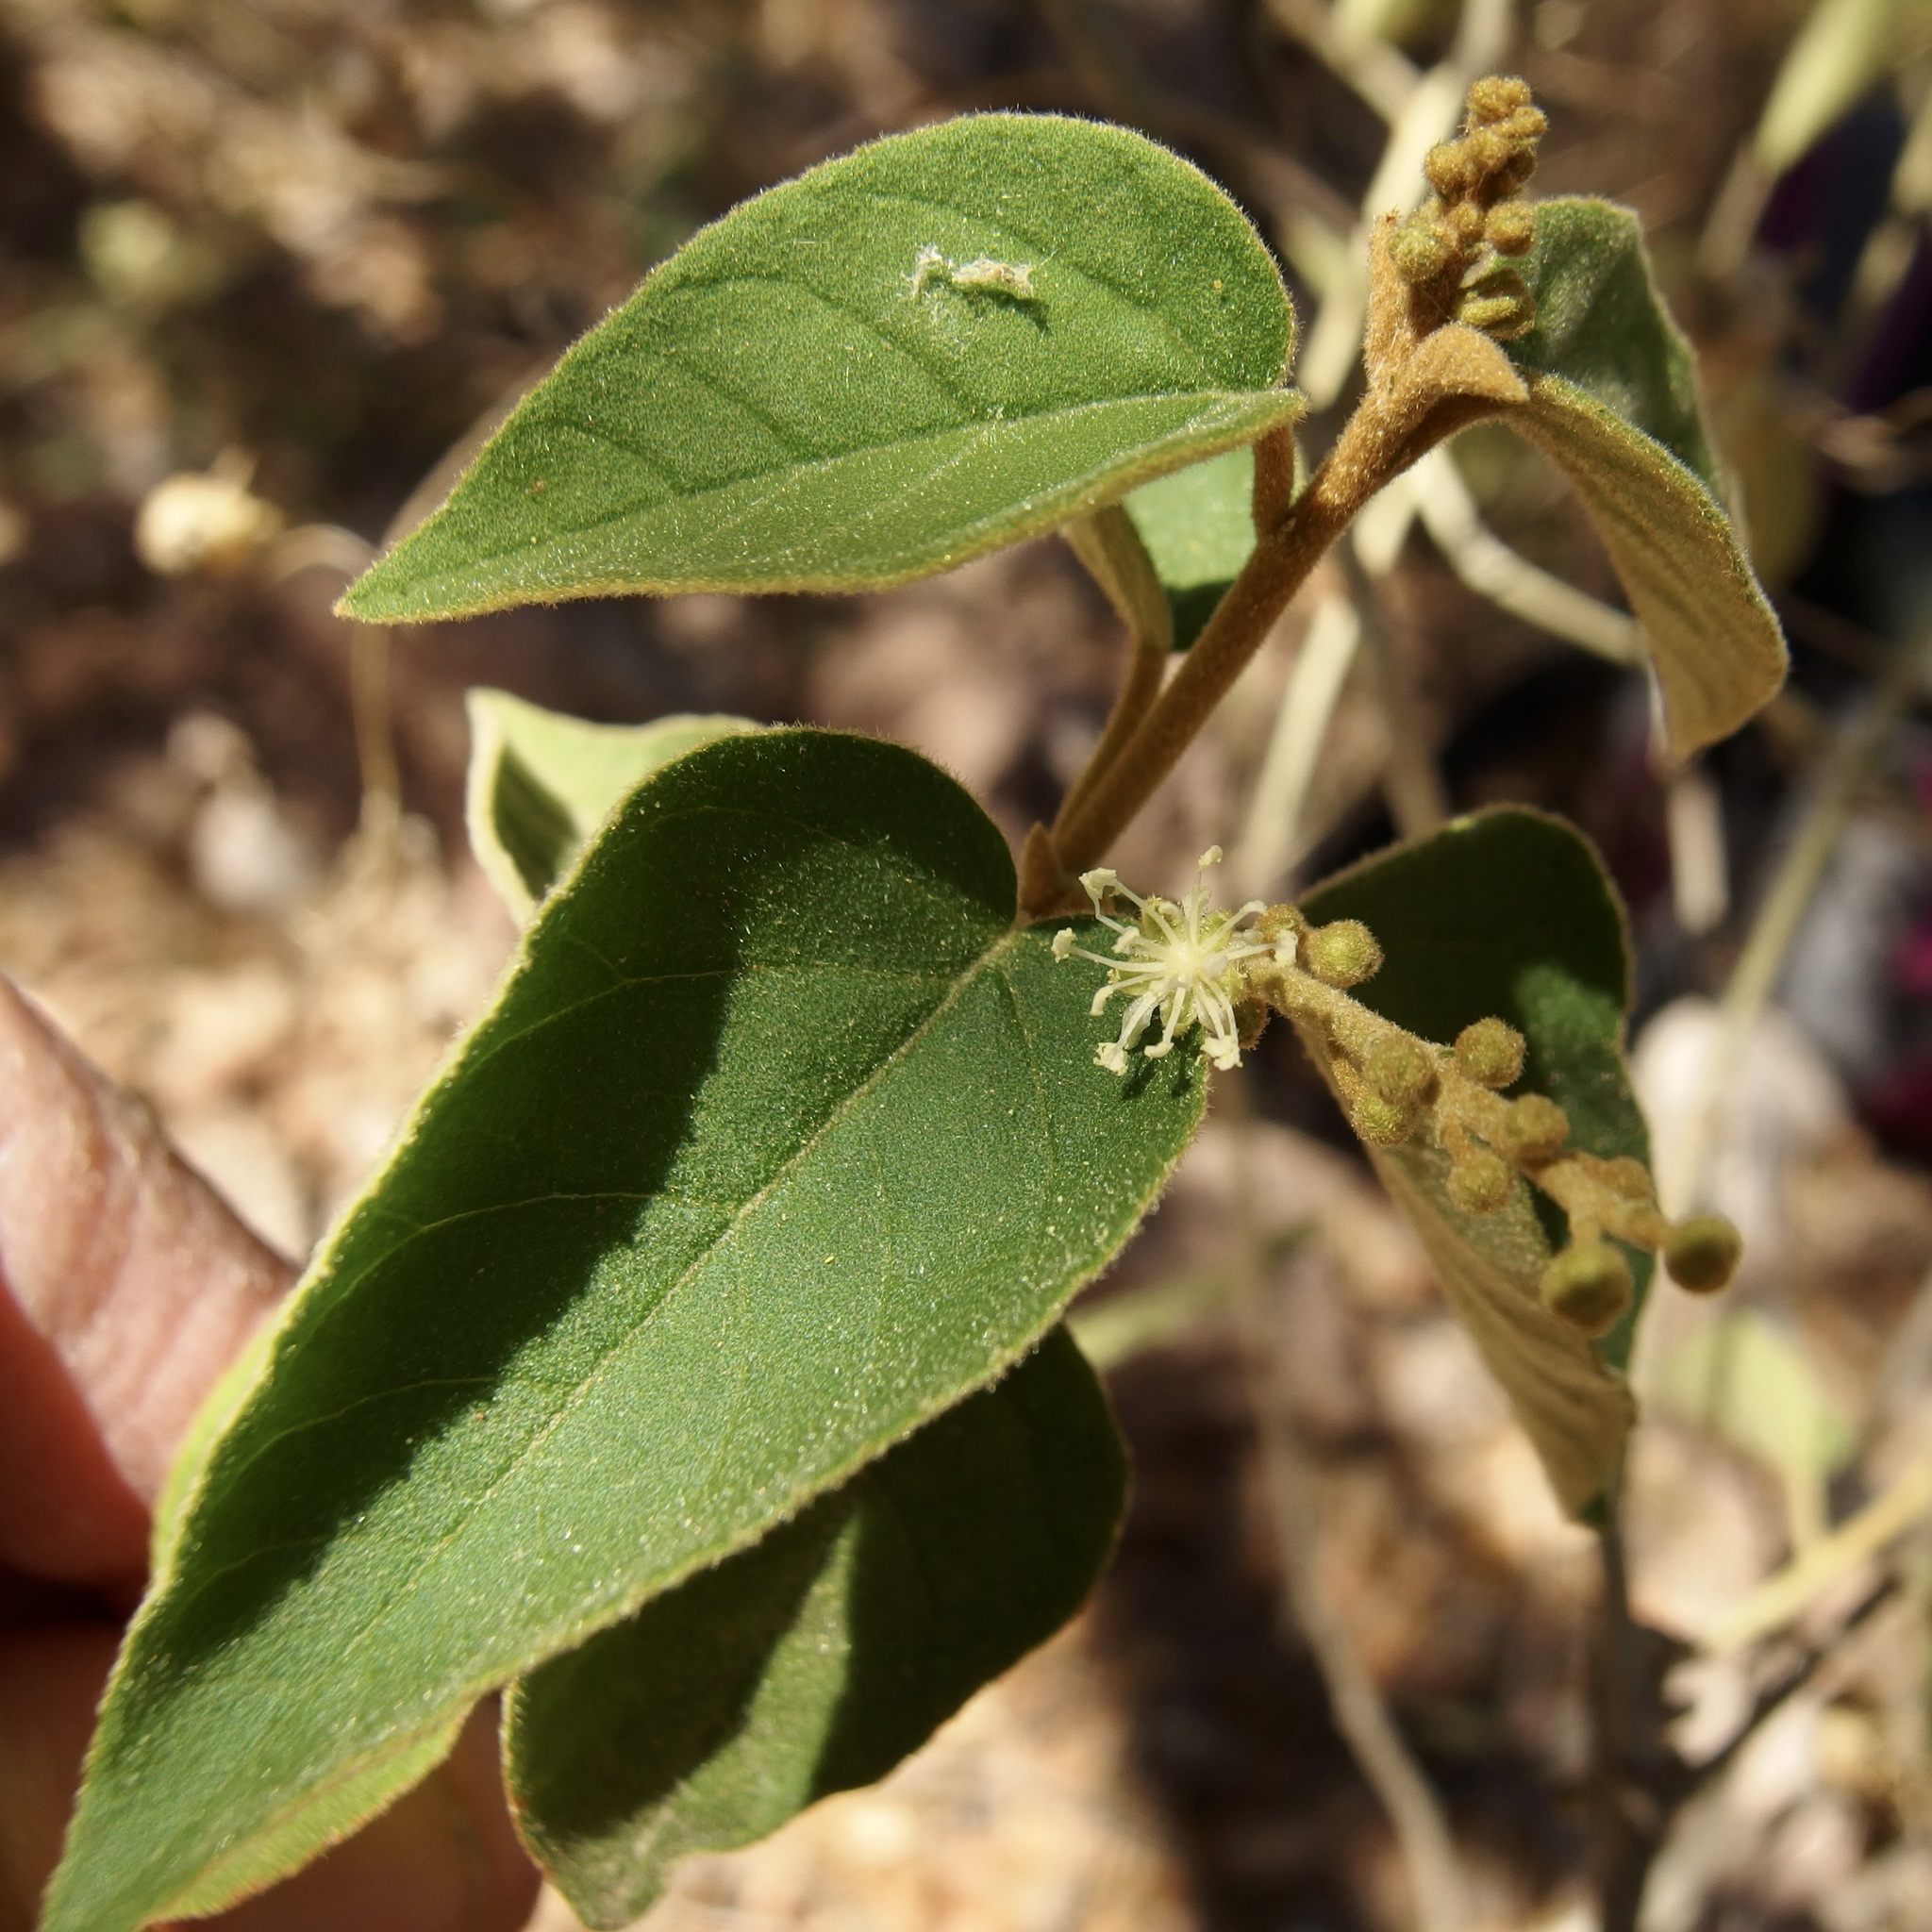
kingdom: Plantae
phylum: Tracheophyta
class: Magnoliopsida
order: Malpighiales
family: Euphorbiaceae
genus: Croton
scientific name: Croton fruticulosus
